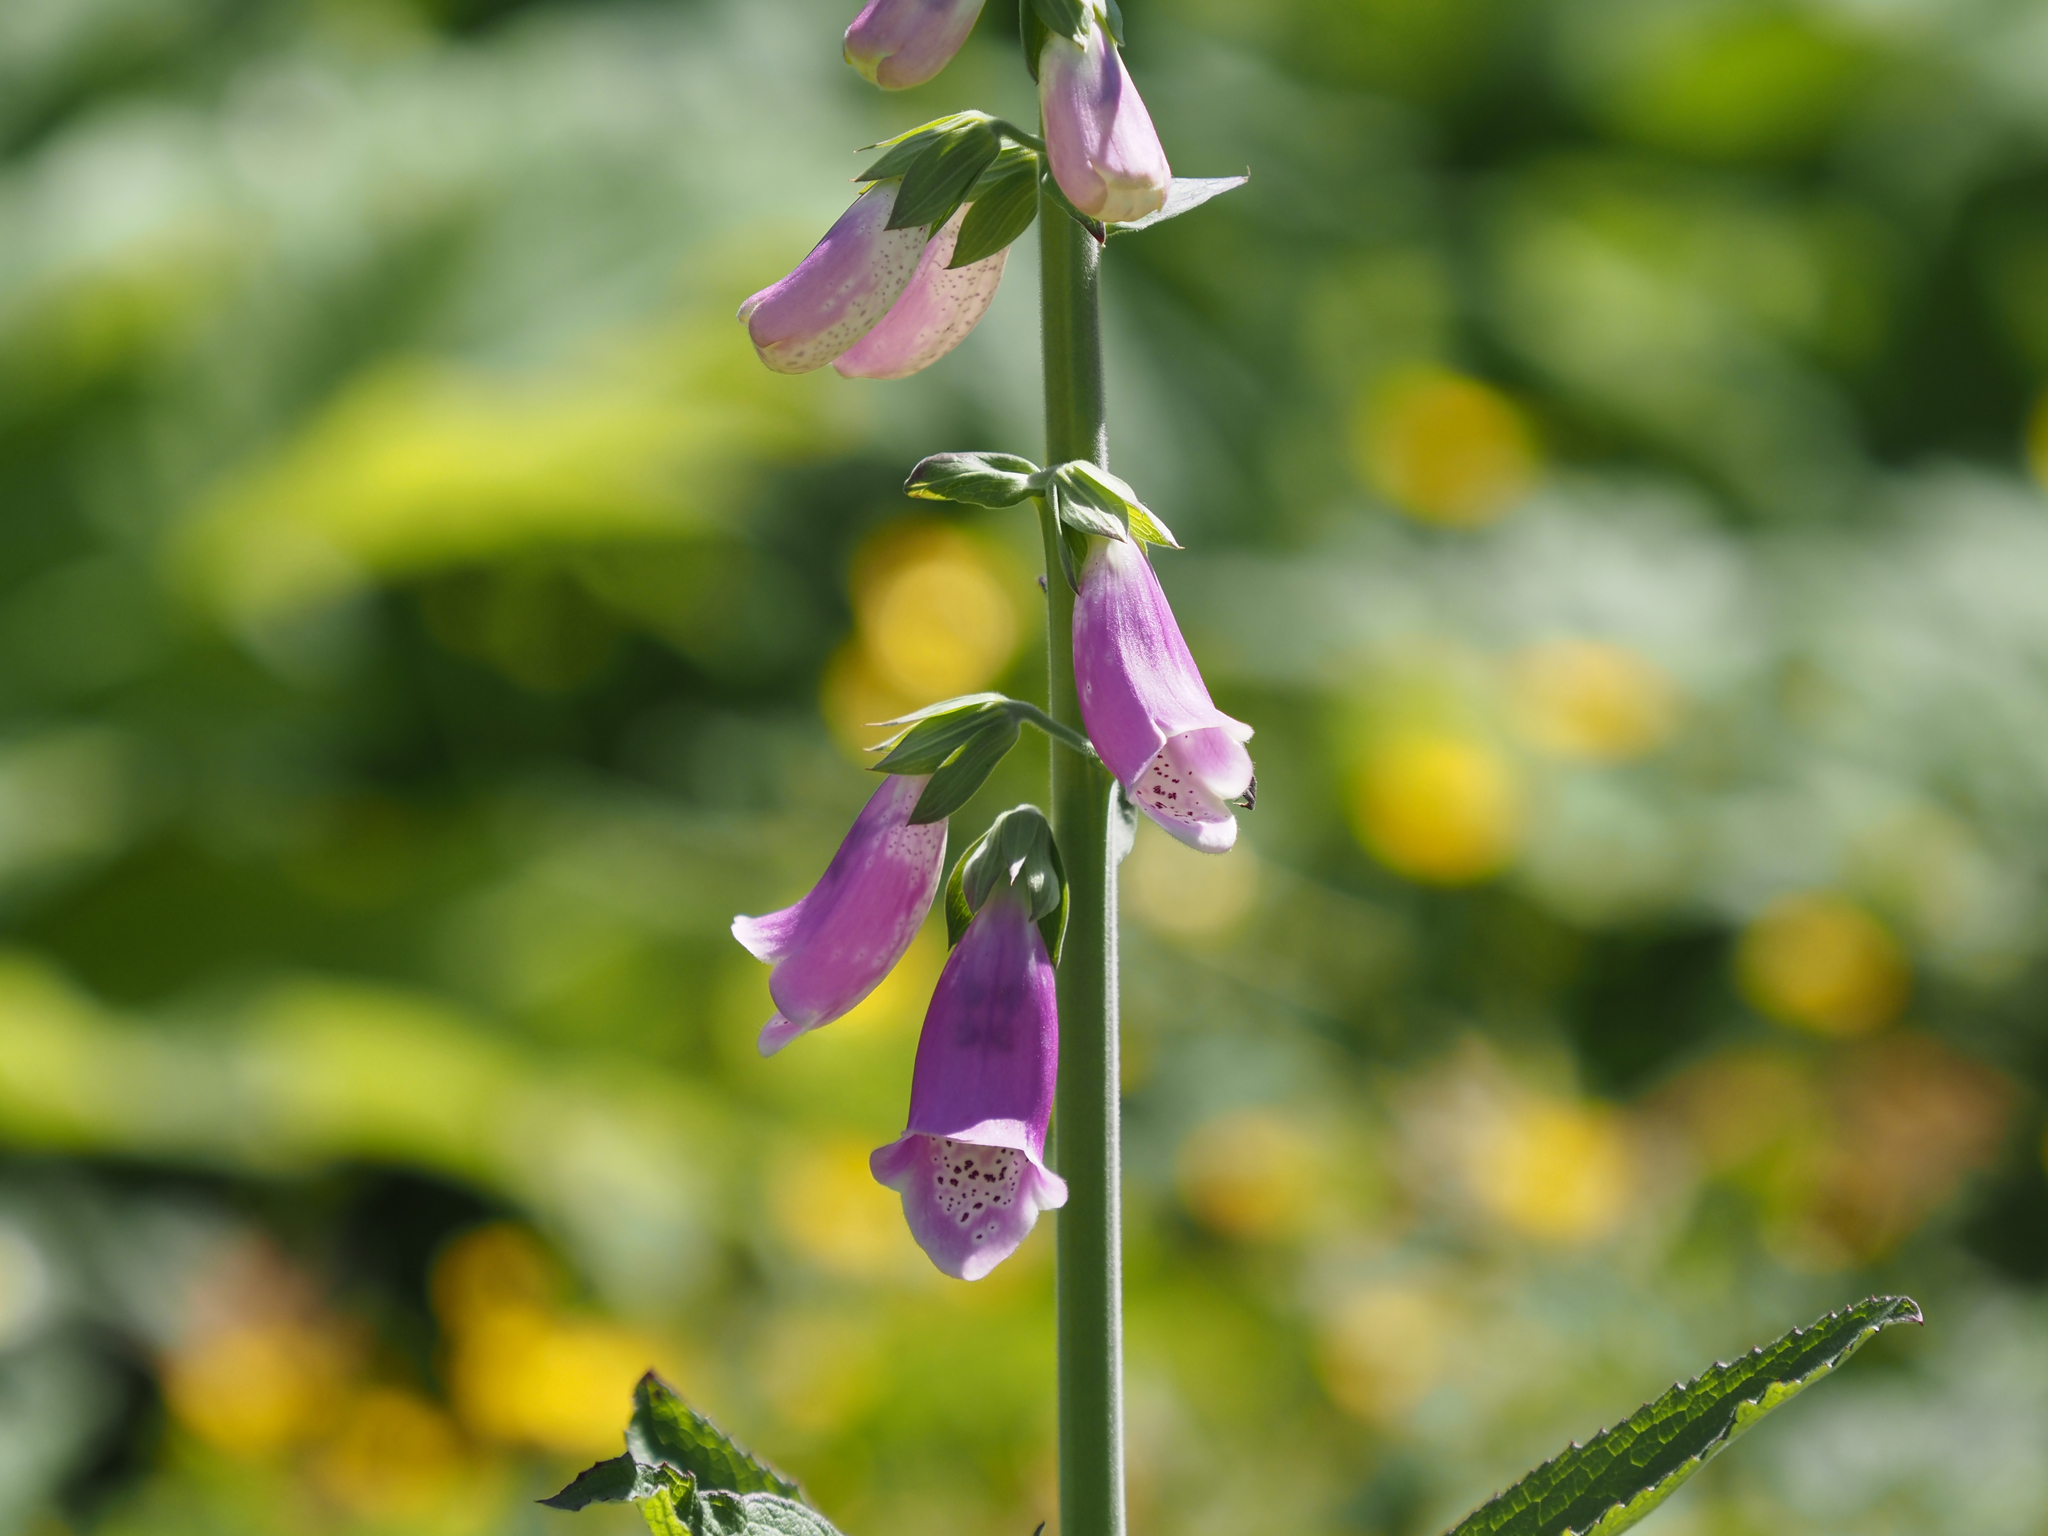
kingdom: Plantae
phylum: Tracheophyta
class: Magnoliopsida
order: Lamiales
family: Plantaginaceae
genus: Digitalis
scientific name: Digitalis purpurea
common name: Foxglove
